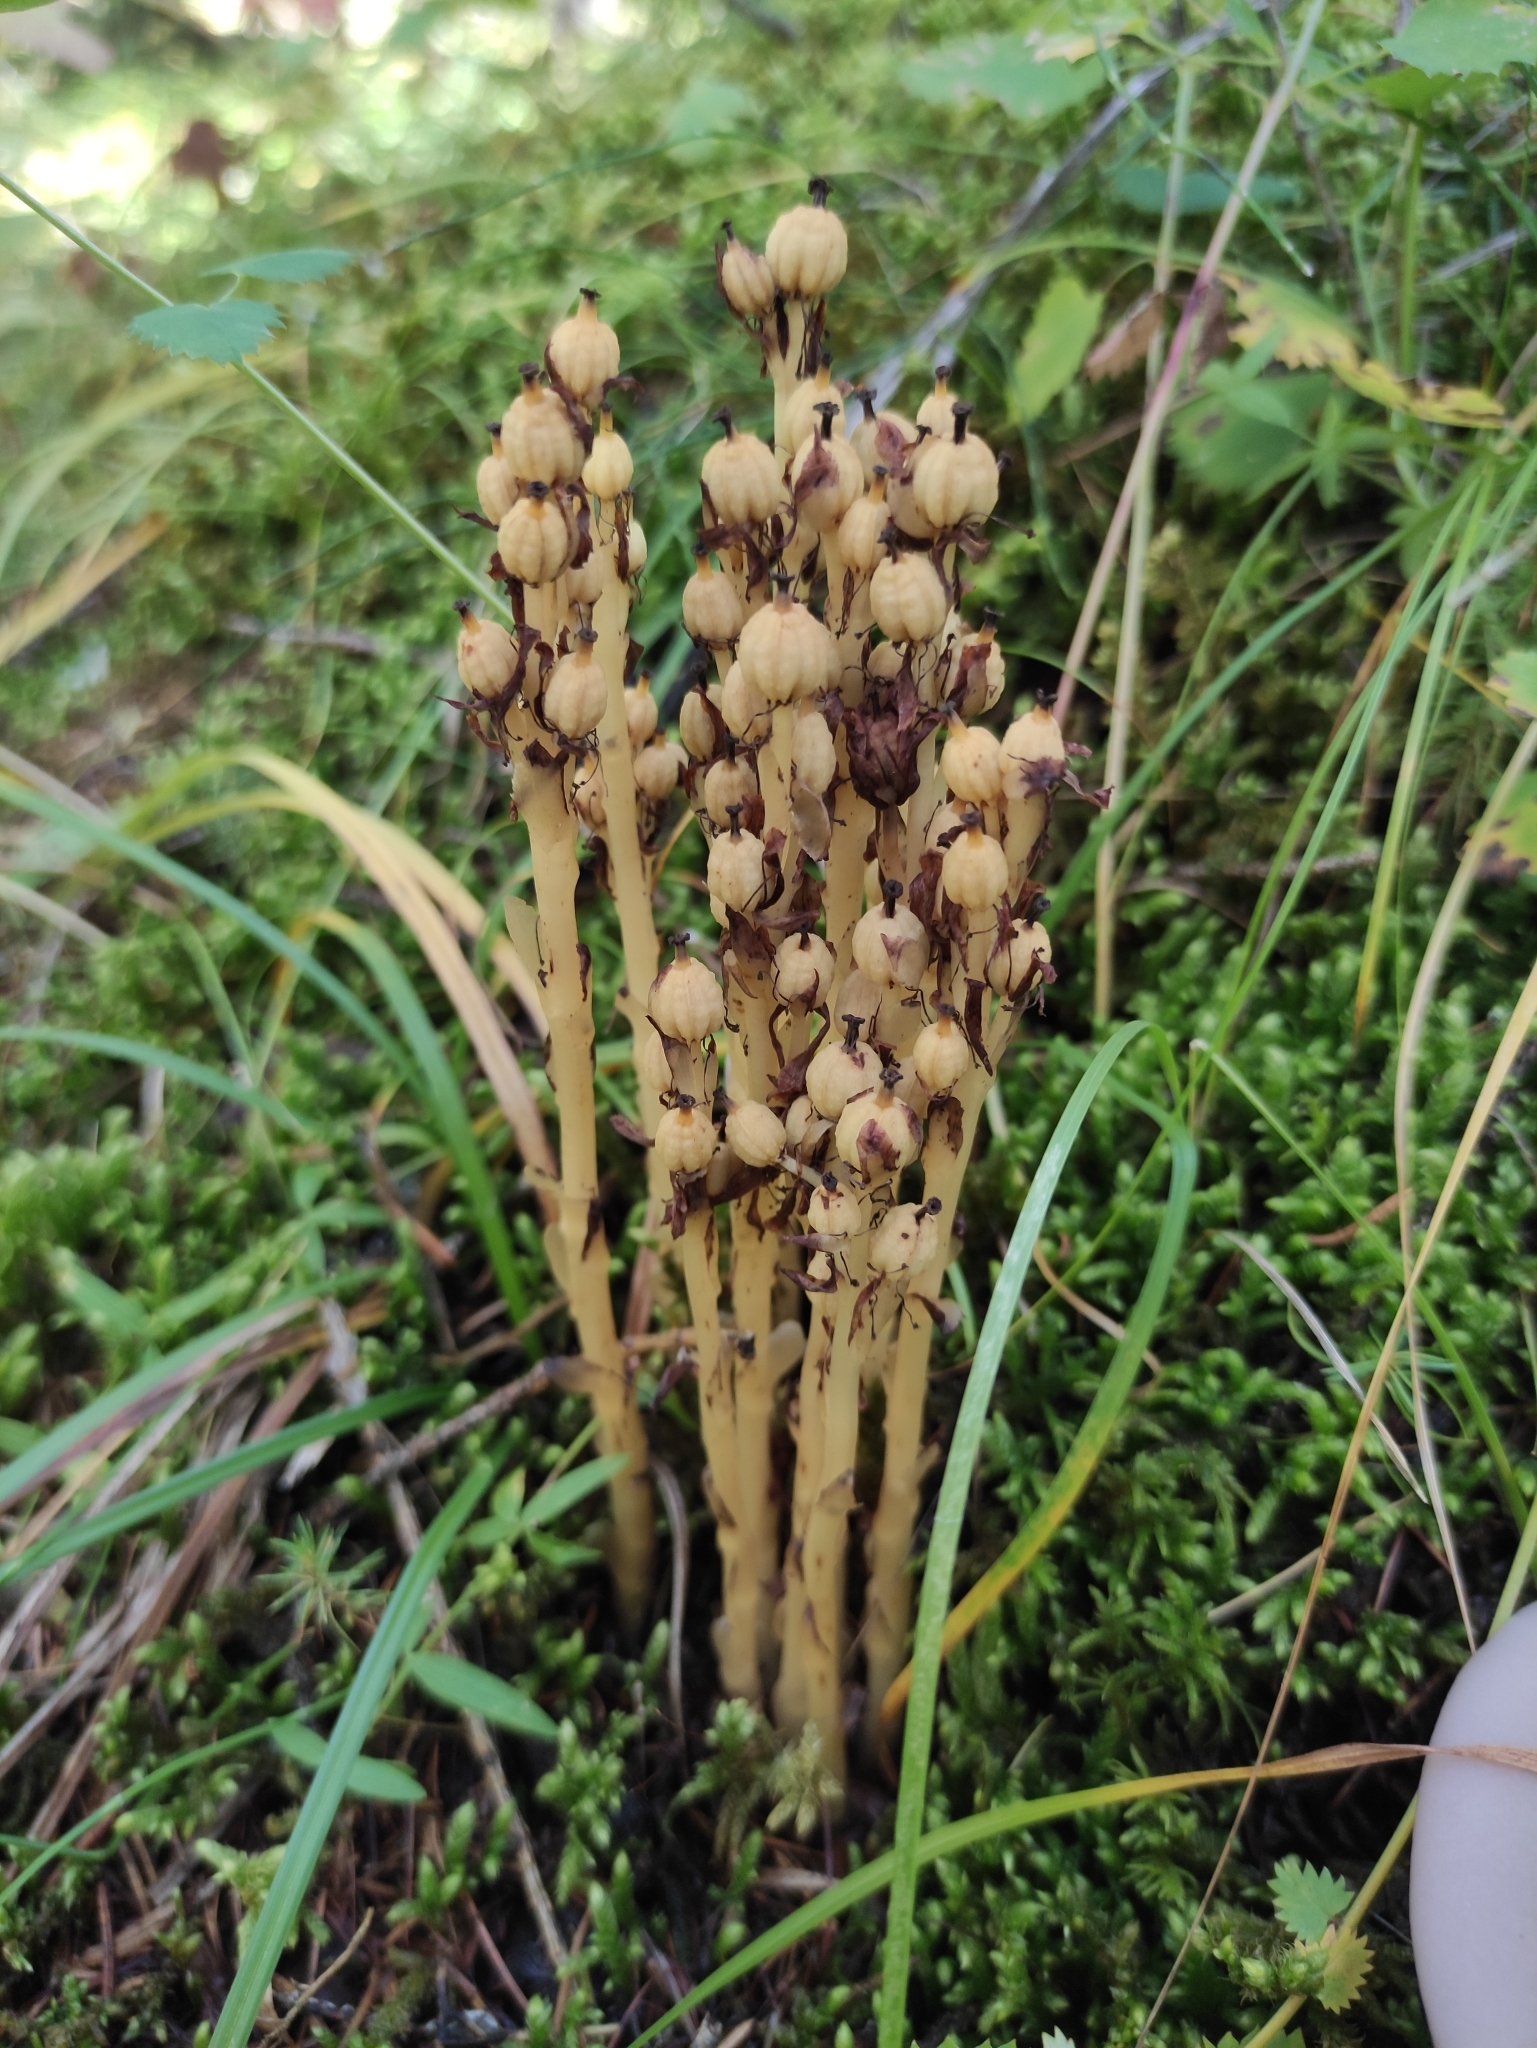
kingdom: Plantae
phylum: Tracheophyta
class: Magnoliopsida
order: Ericales
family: Ericaceae
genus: Hypopitys
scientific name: Hypopitys monotropa
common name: Yellow bird's-nest
